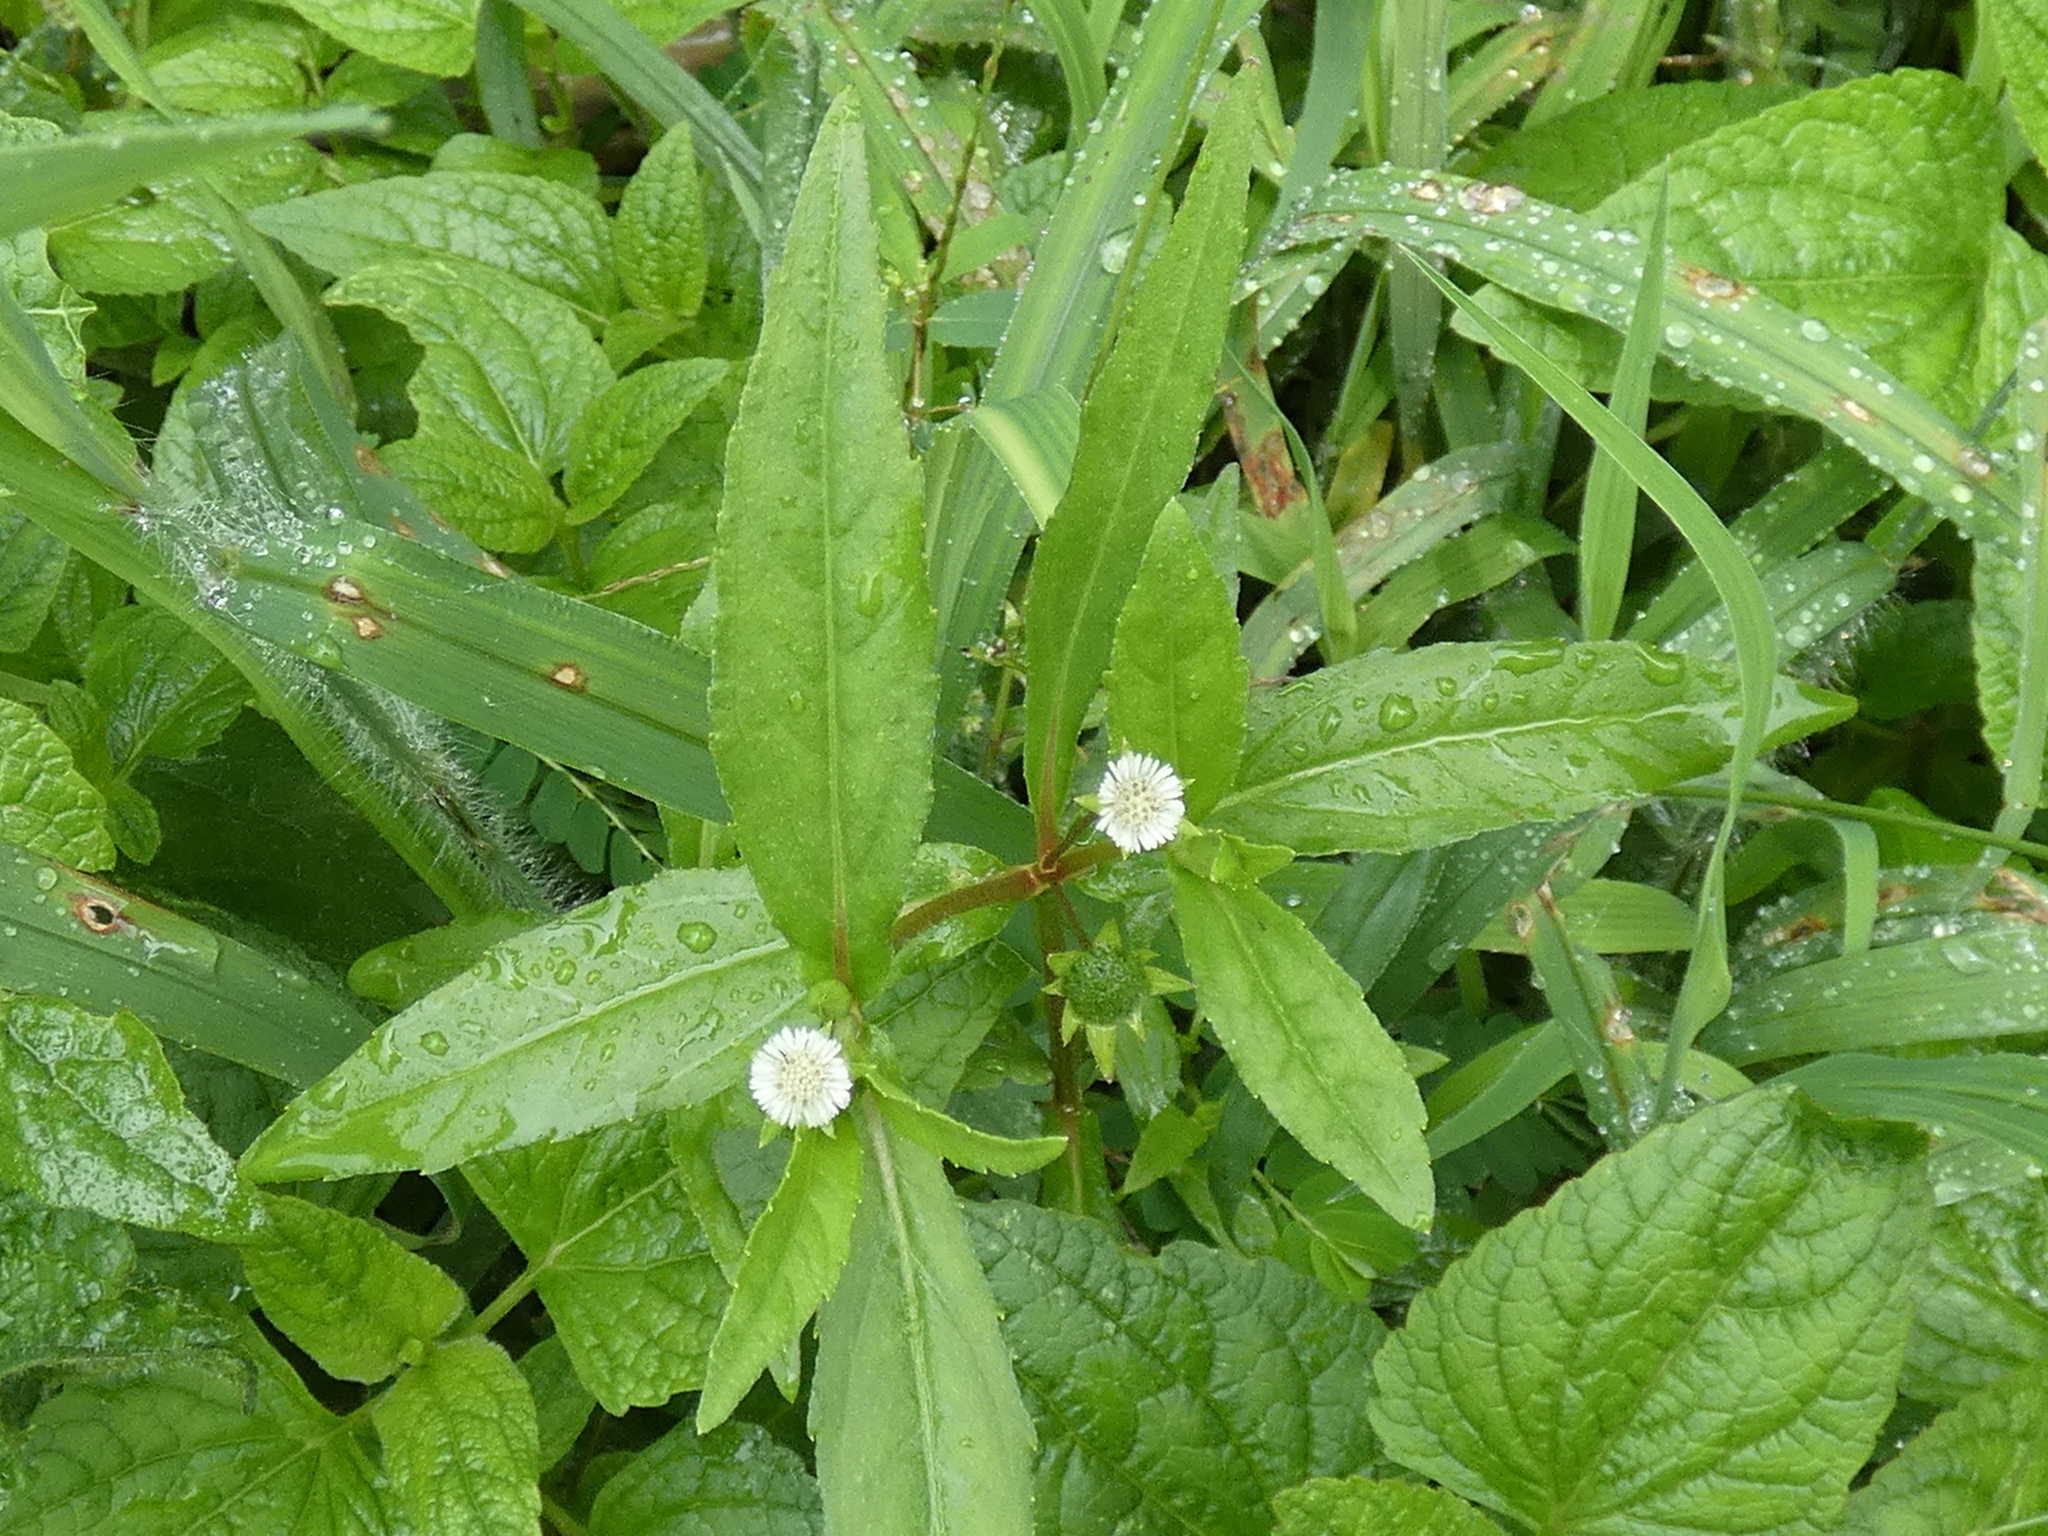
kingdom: Plantae
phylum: Tracheophyta
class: Magnoliopsida
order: Asterales
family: Asteraceae
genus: Eclipta
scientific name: Eclipta prostrata
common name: False daisy
